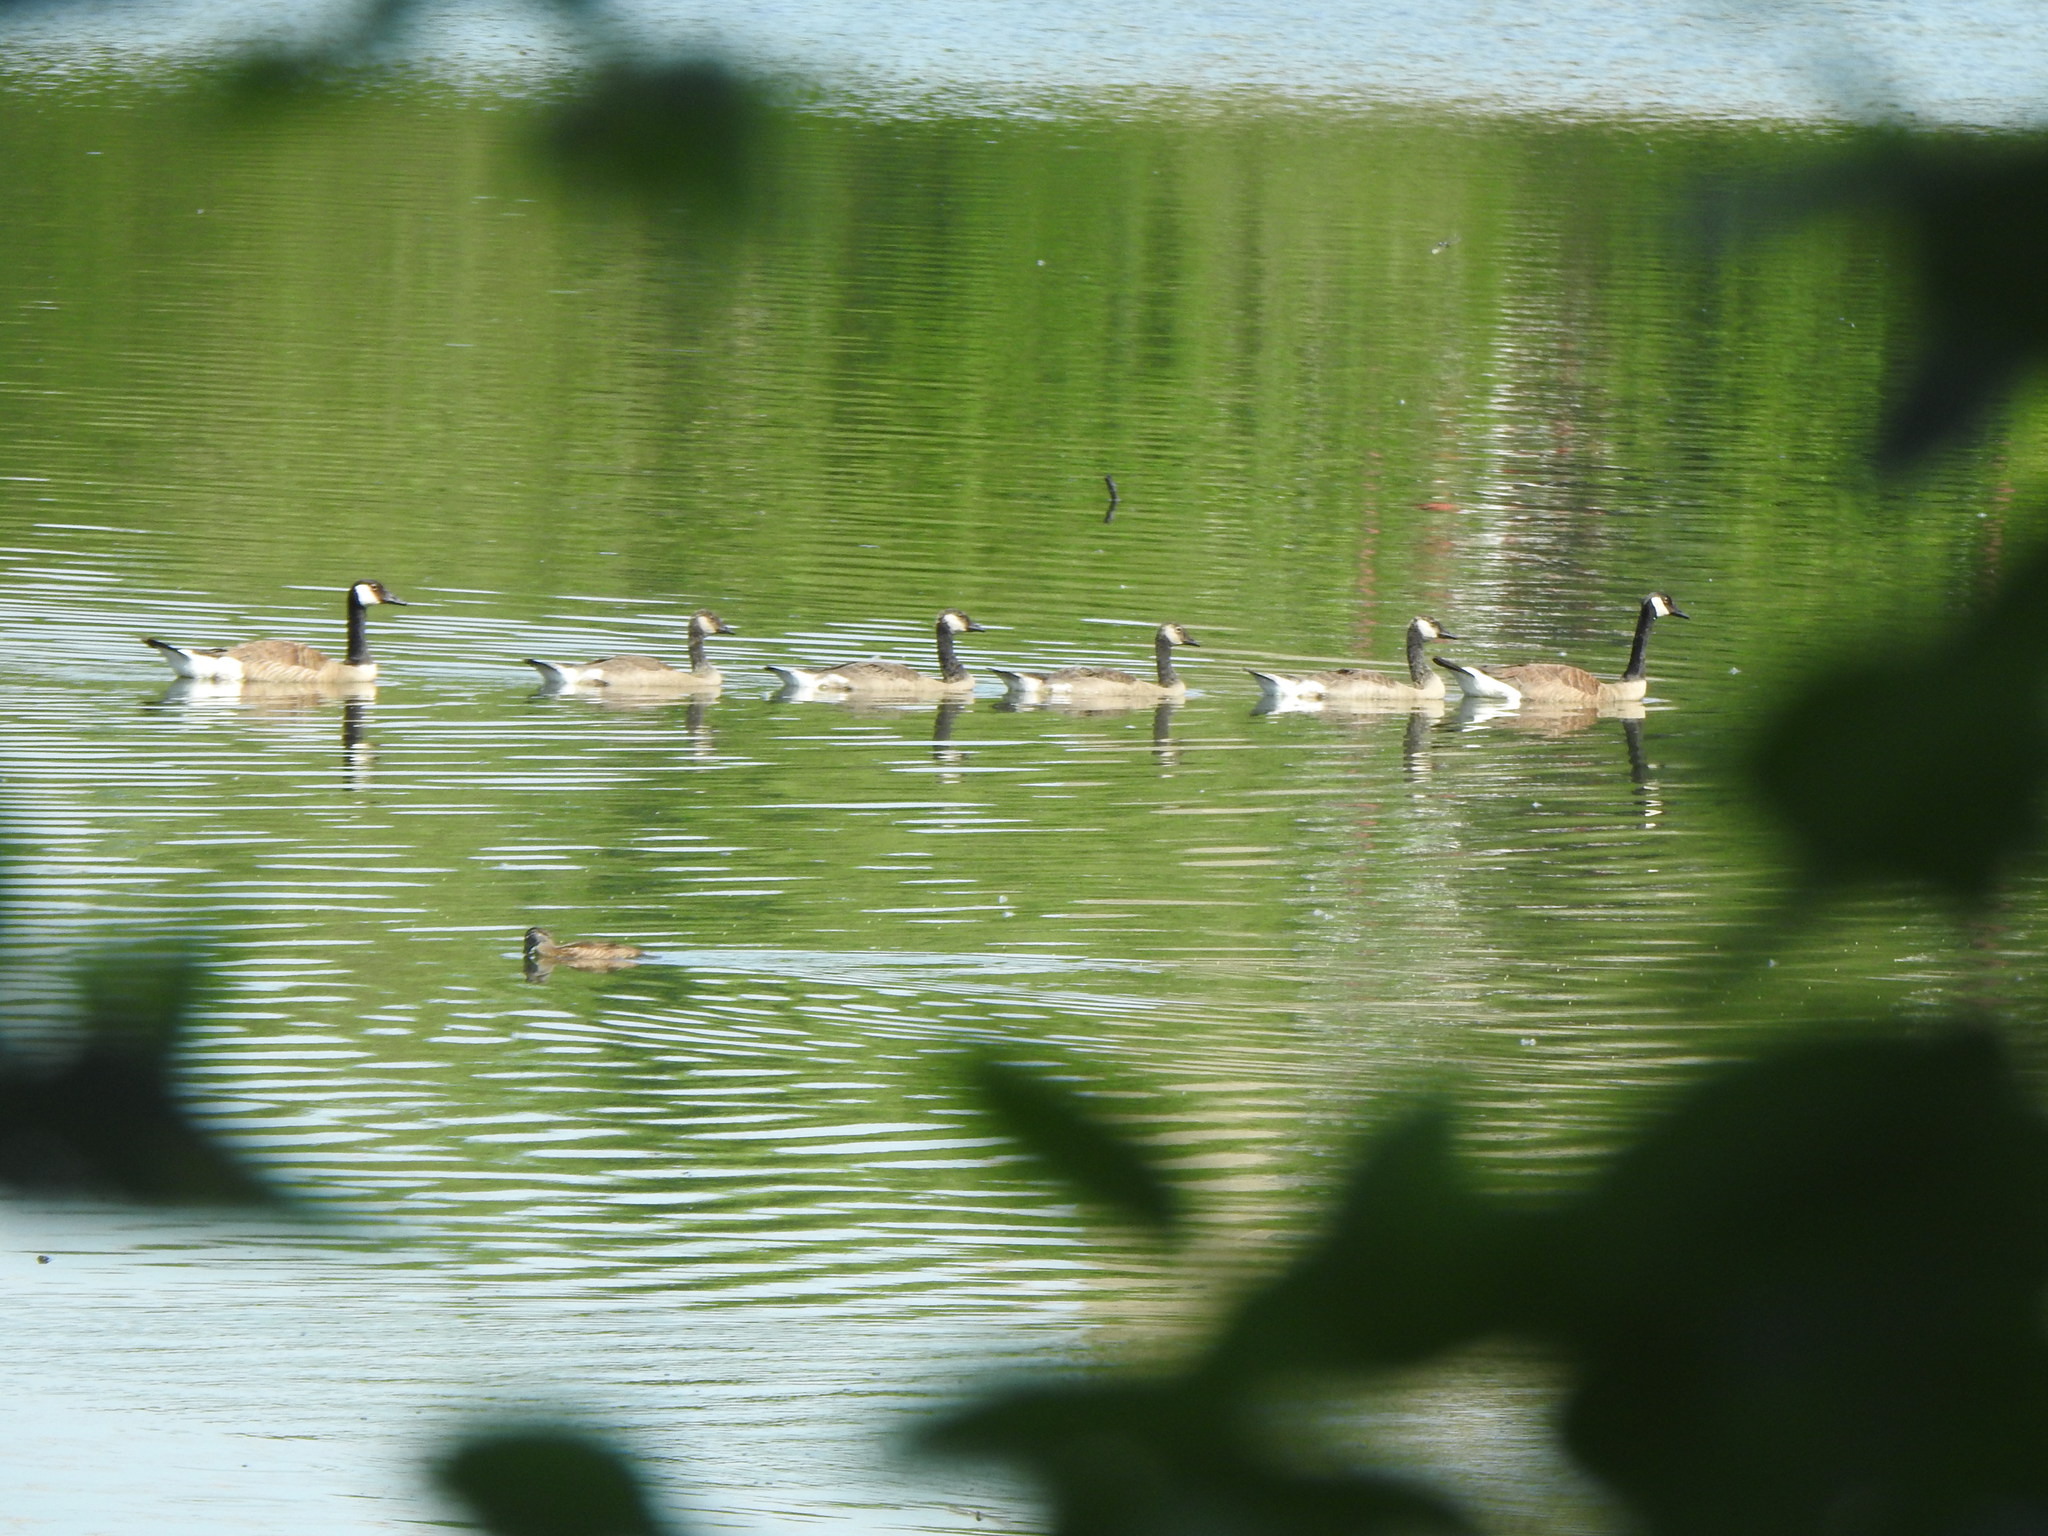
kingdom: Animalia
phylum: Chordata
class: Aves
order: Anseriformes
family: Anatidae
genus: Branta
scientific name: Branta canadensis
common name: Canada goose
